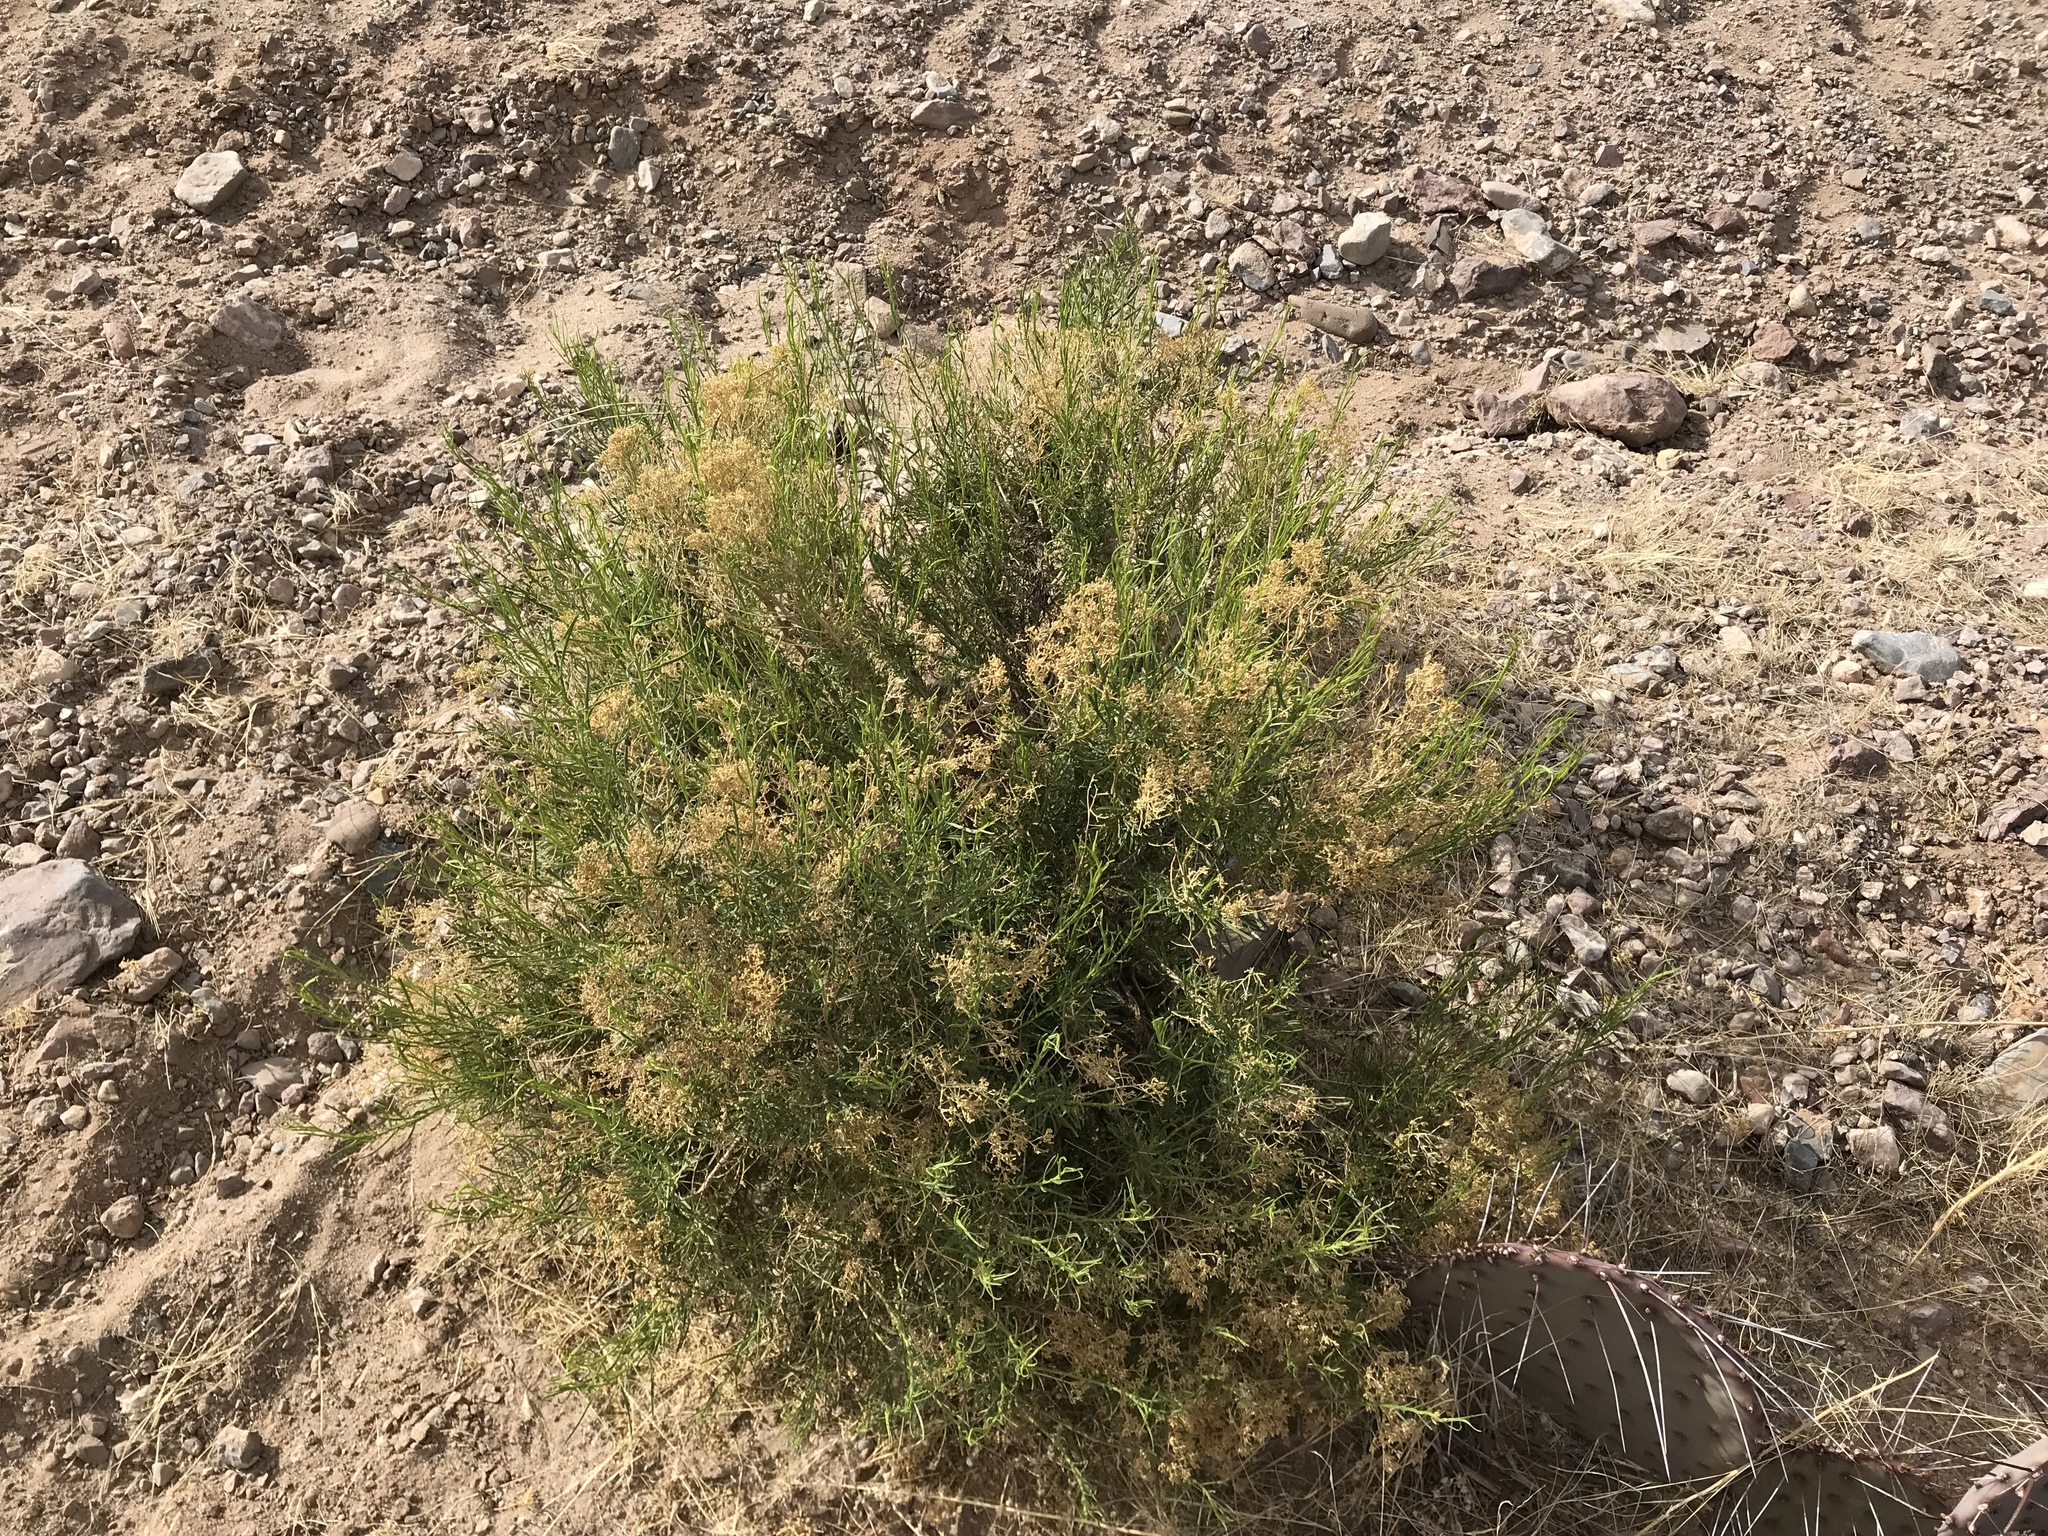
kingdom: Plantae
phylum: Tracheophyta
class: Magnoliopsida
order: Asterales
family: Asteraceae
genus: Gutierrezia
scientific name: Gutierrezia microcephala
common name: Thread snakeweed
